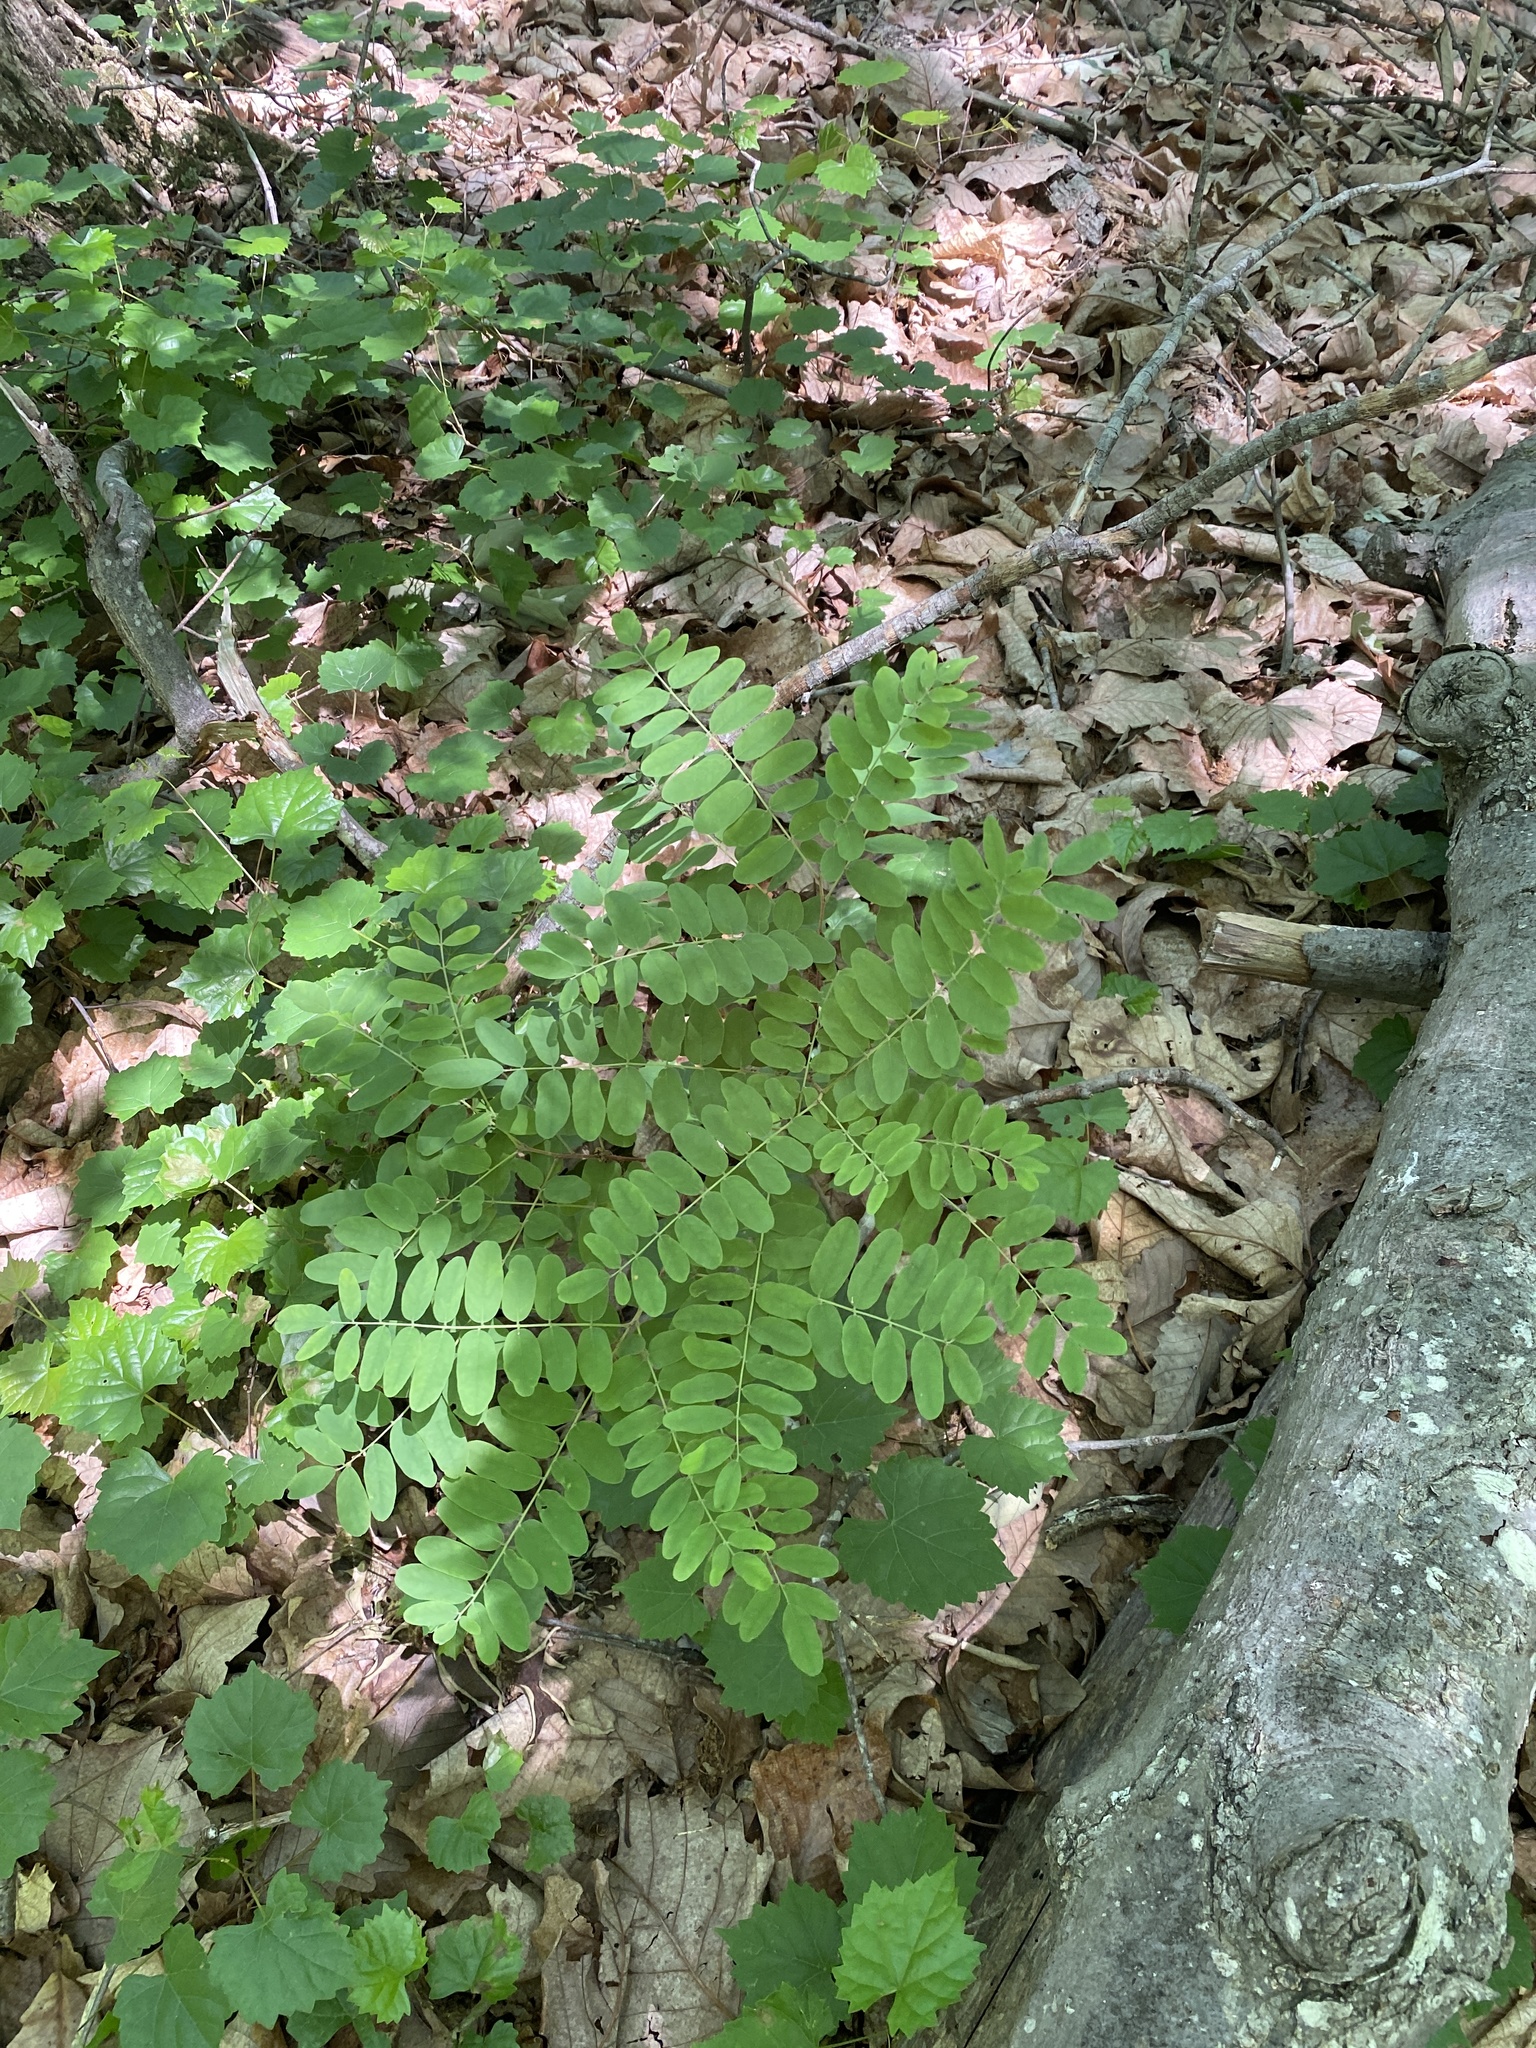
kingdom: Plantae
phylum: Tracheophyta
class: Magnoliopsida
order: Fabales
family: Fabaceae
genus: Amorpha
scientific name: Amorpha schwerinii
